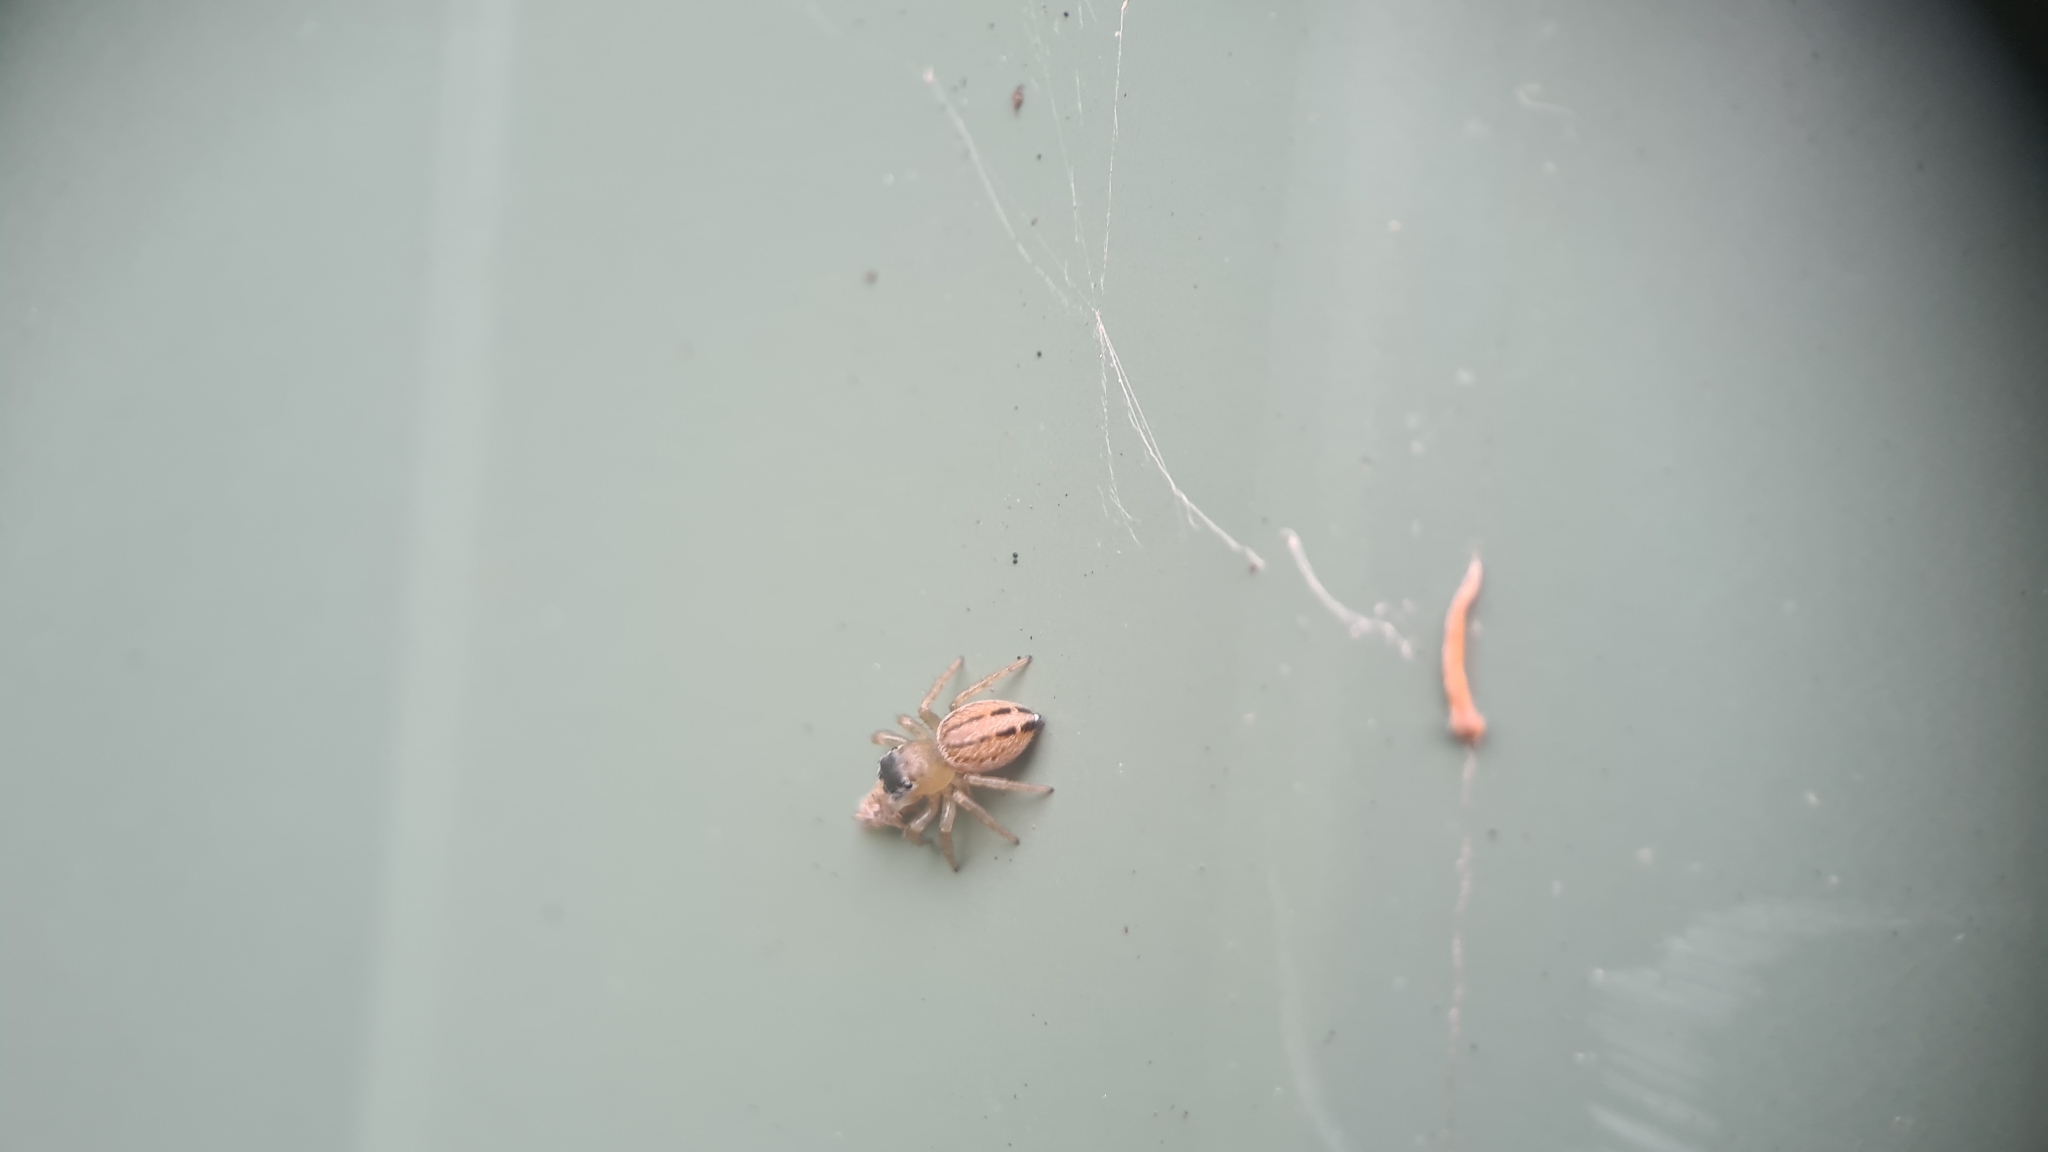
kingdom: Animalia
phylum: Arthropoda
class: Arachnida
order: Araneae
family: Salticidae
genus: Maratus
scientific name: Maratus scutulatus
